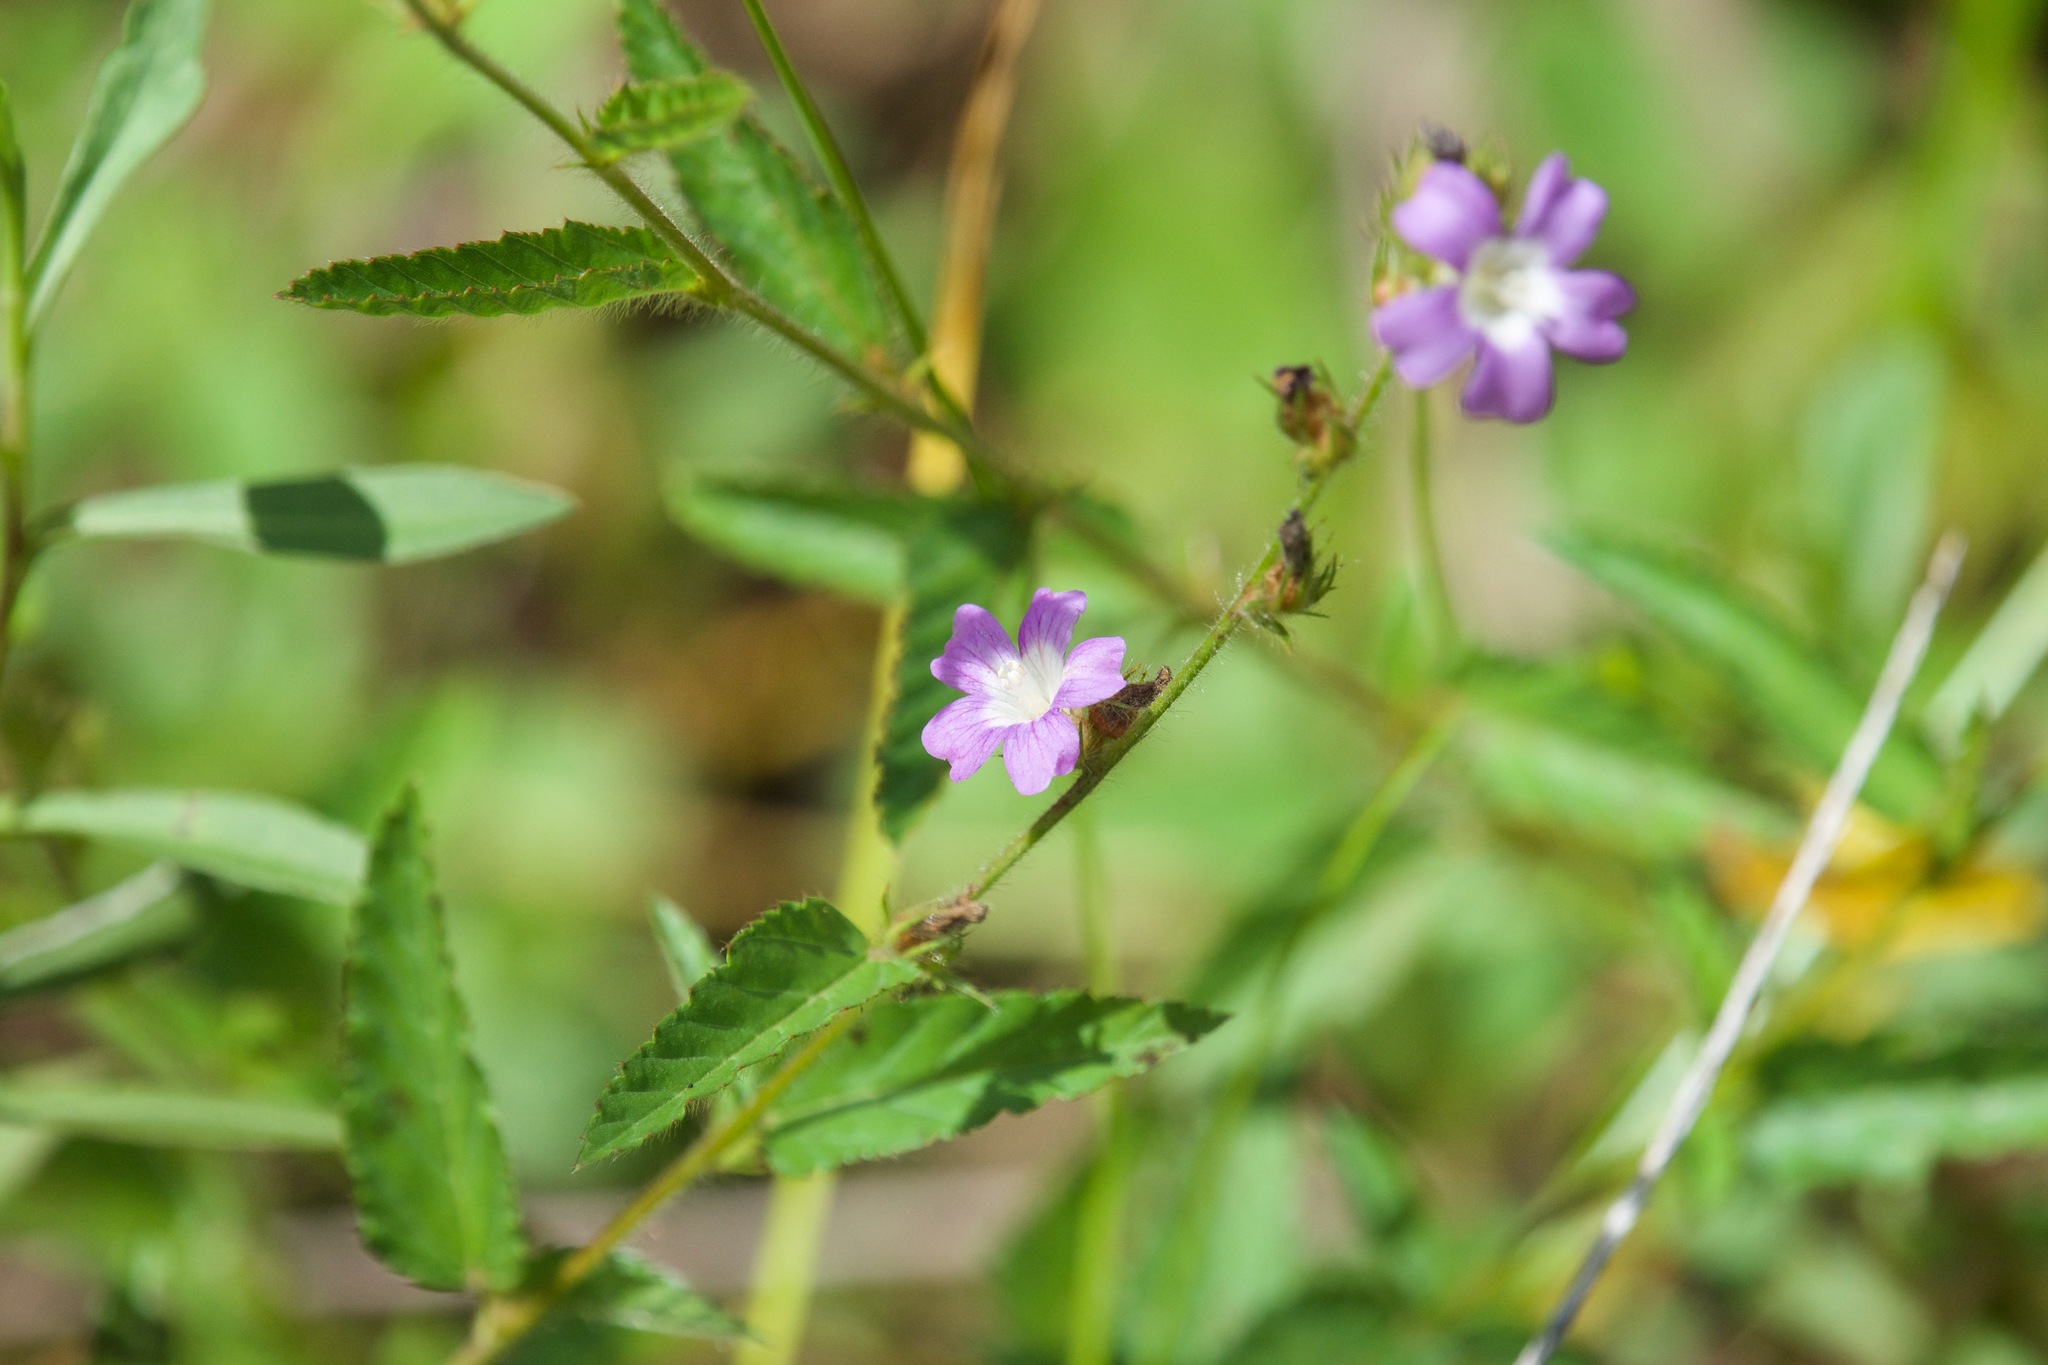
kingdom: Plantae
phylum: Tracheophyta
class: Magnoliopsida
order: Malvales
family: Malvaceae
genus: Melochia
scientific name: Melochia spicata
